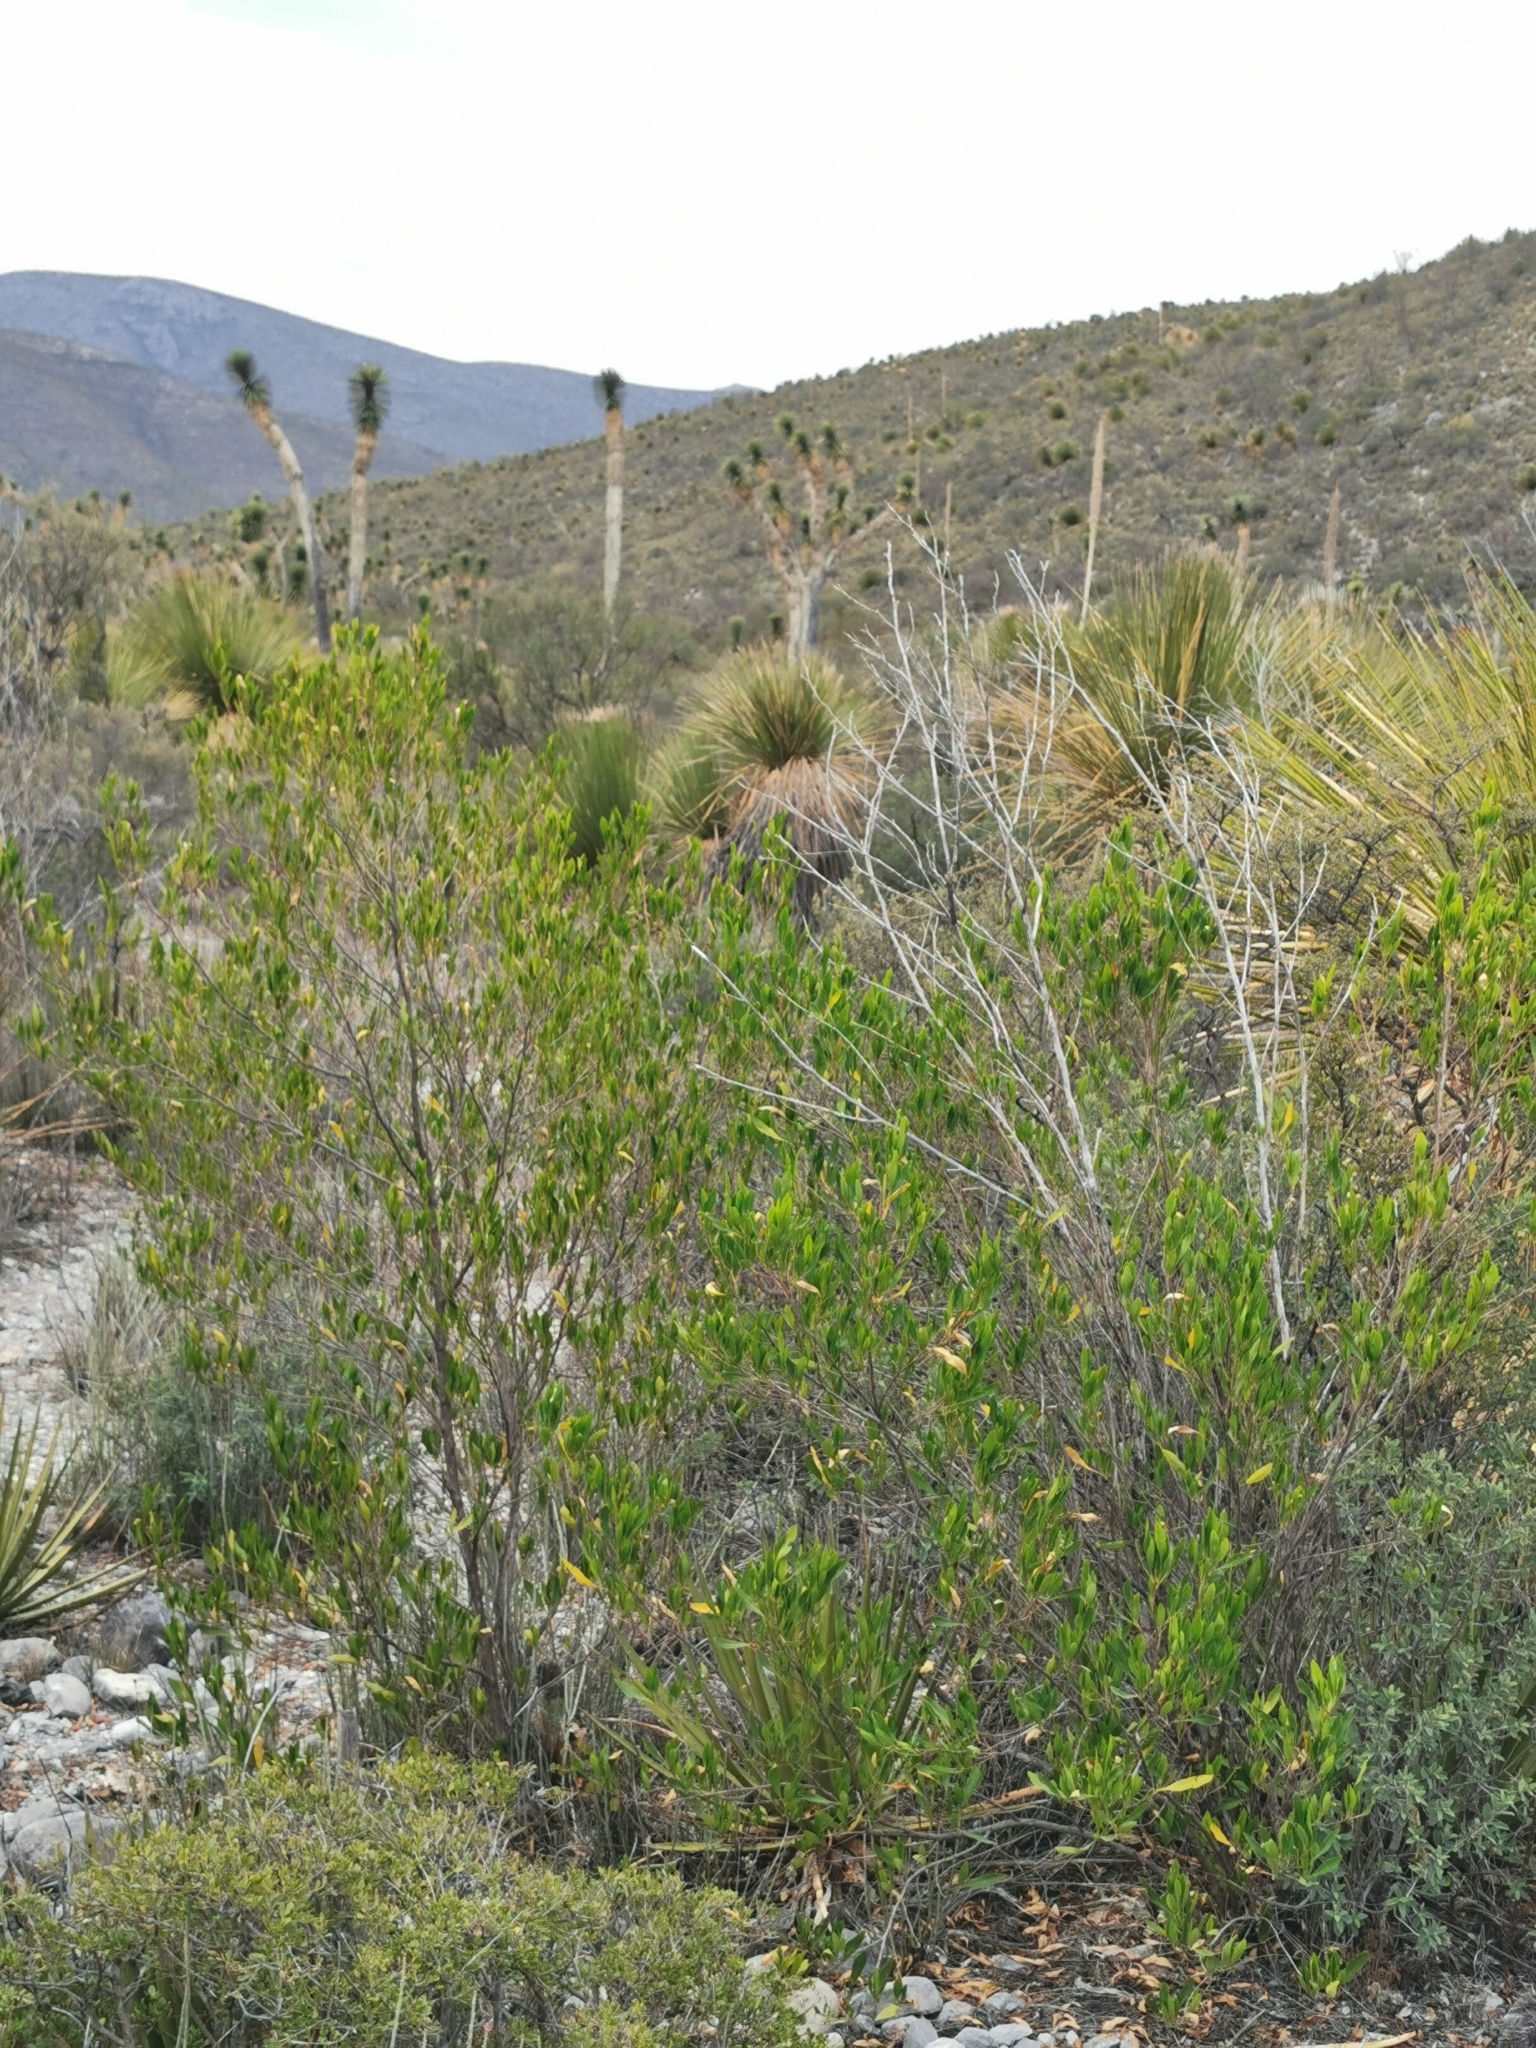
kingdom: Plantae
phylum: Tracheophyta
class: Magnoliopsida
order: Sapindales
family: Sapindaceae
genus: Dodonaea
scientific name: Dodonaea viscosa
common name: Hopbush
